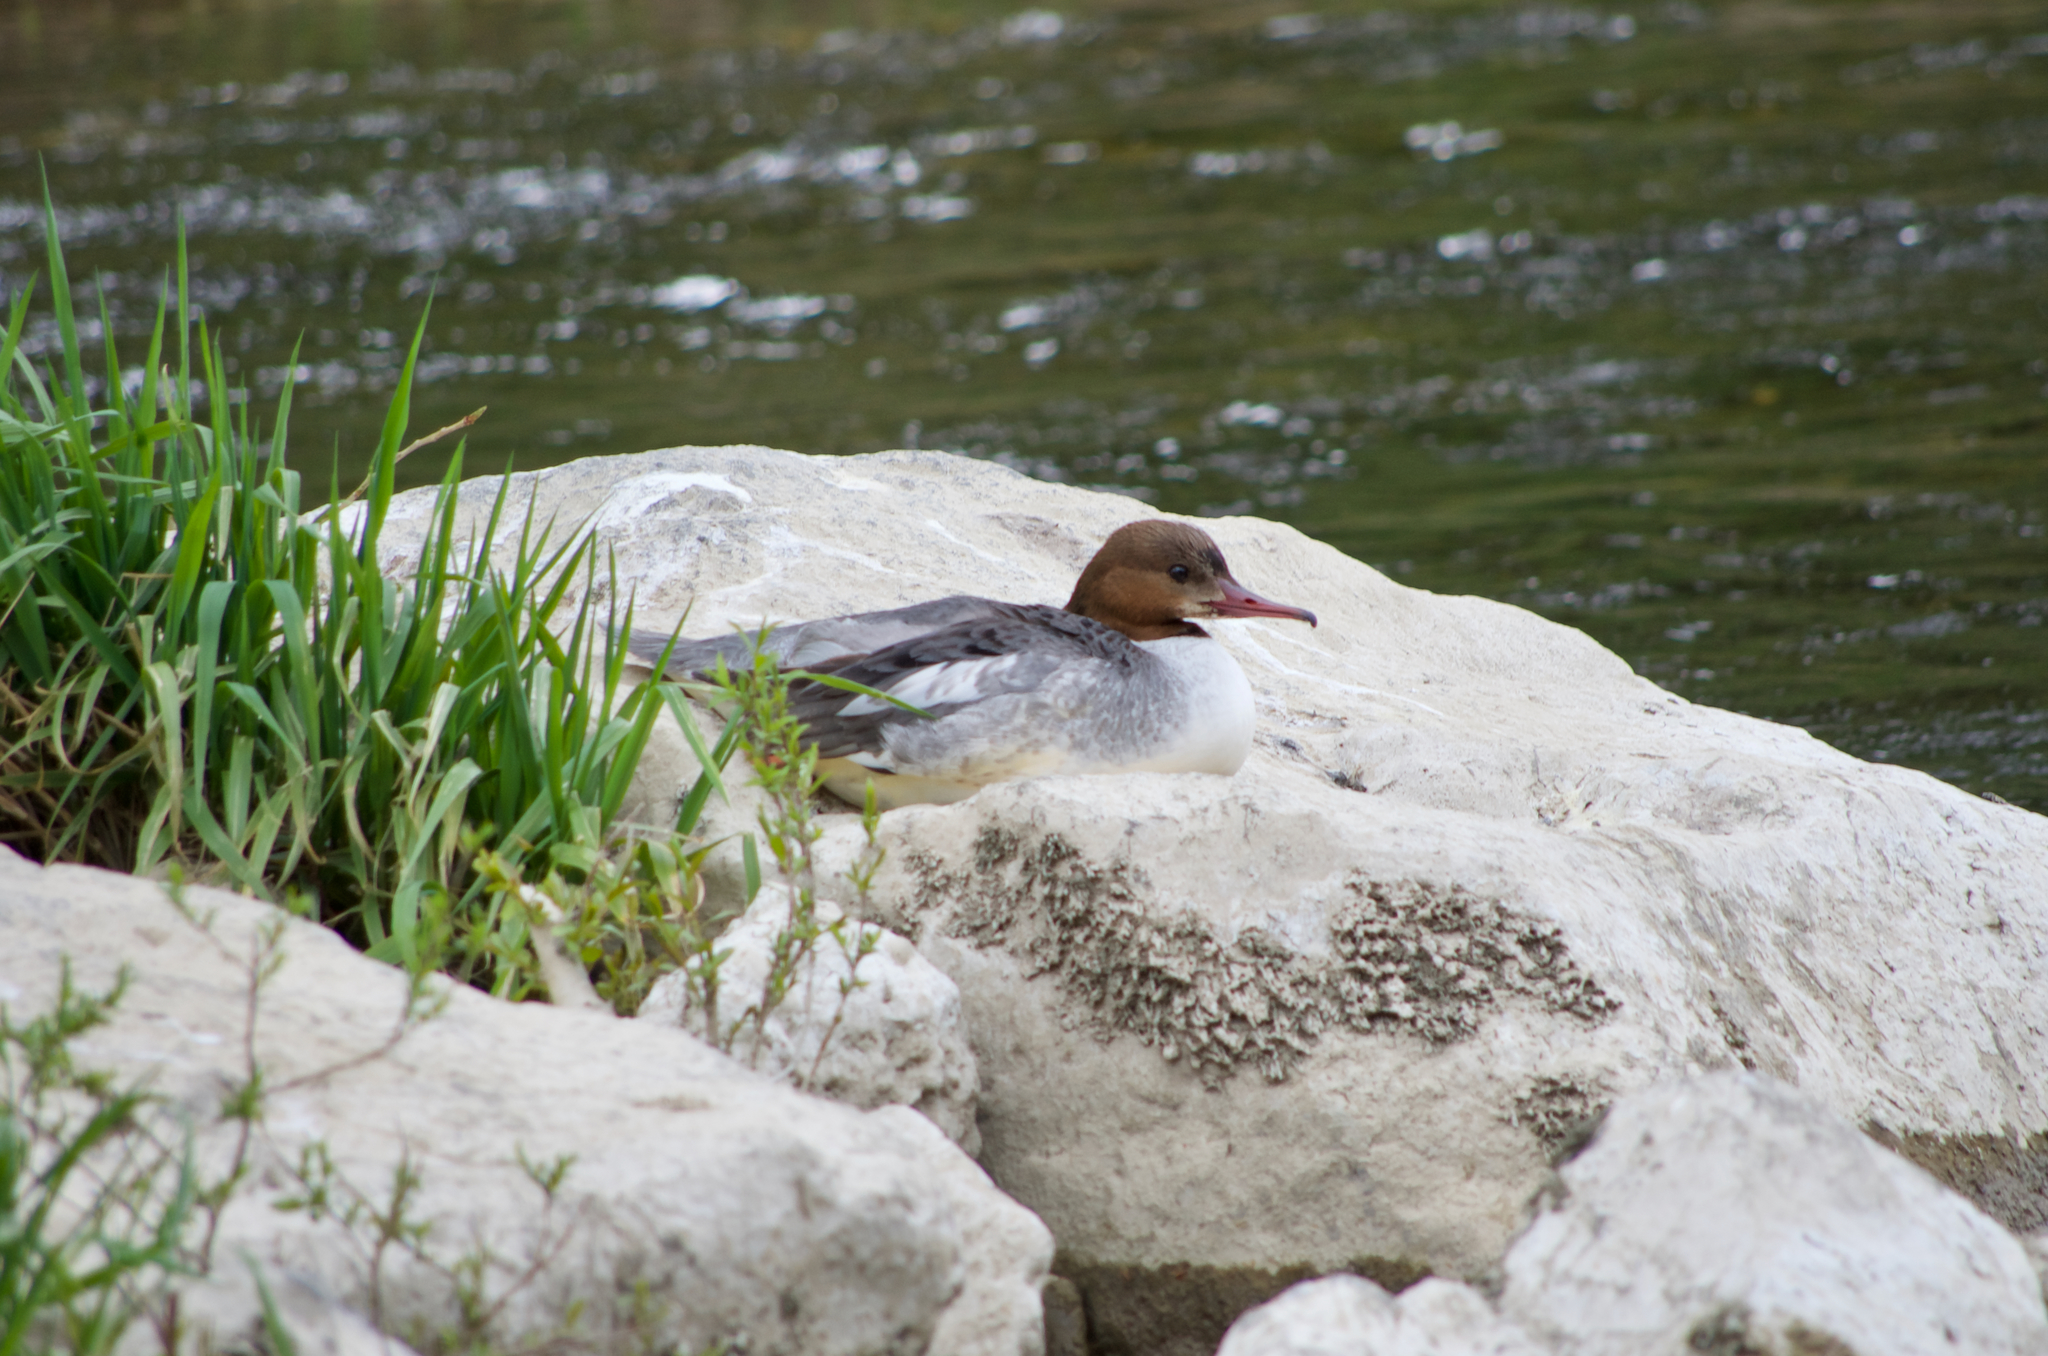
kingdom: Animalia
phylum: Chordata
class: Aves
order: Anseriformes
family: Anatidae
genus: Mergus
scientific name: Mergus merganser
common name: Common merganser
